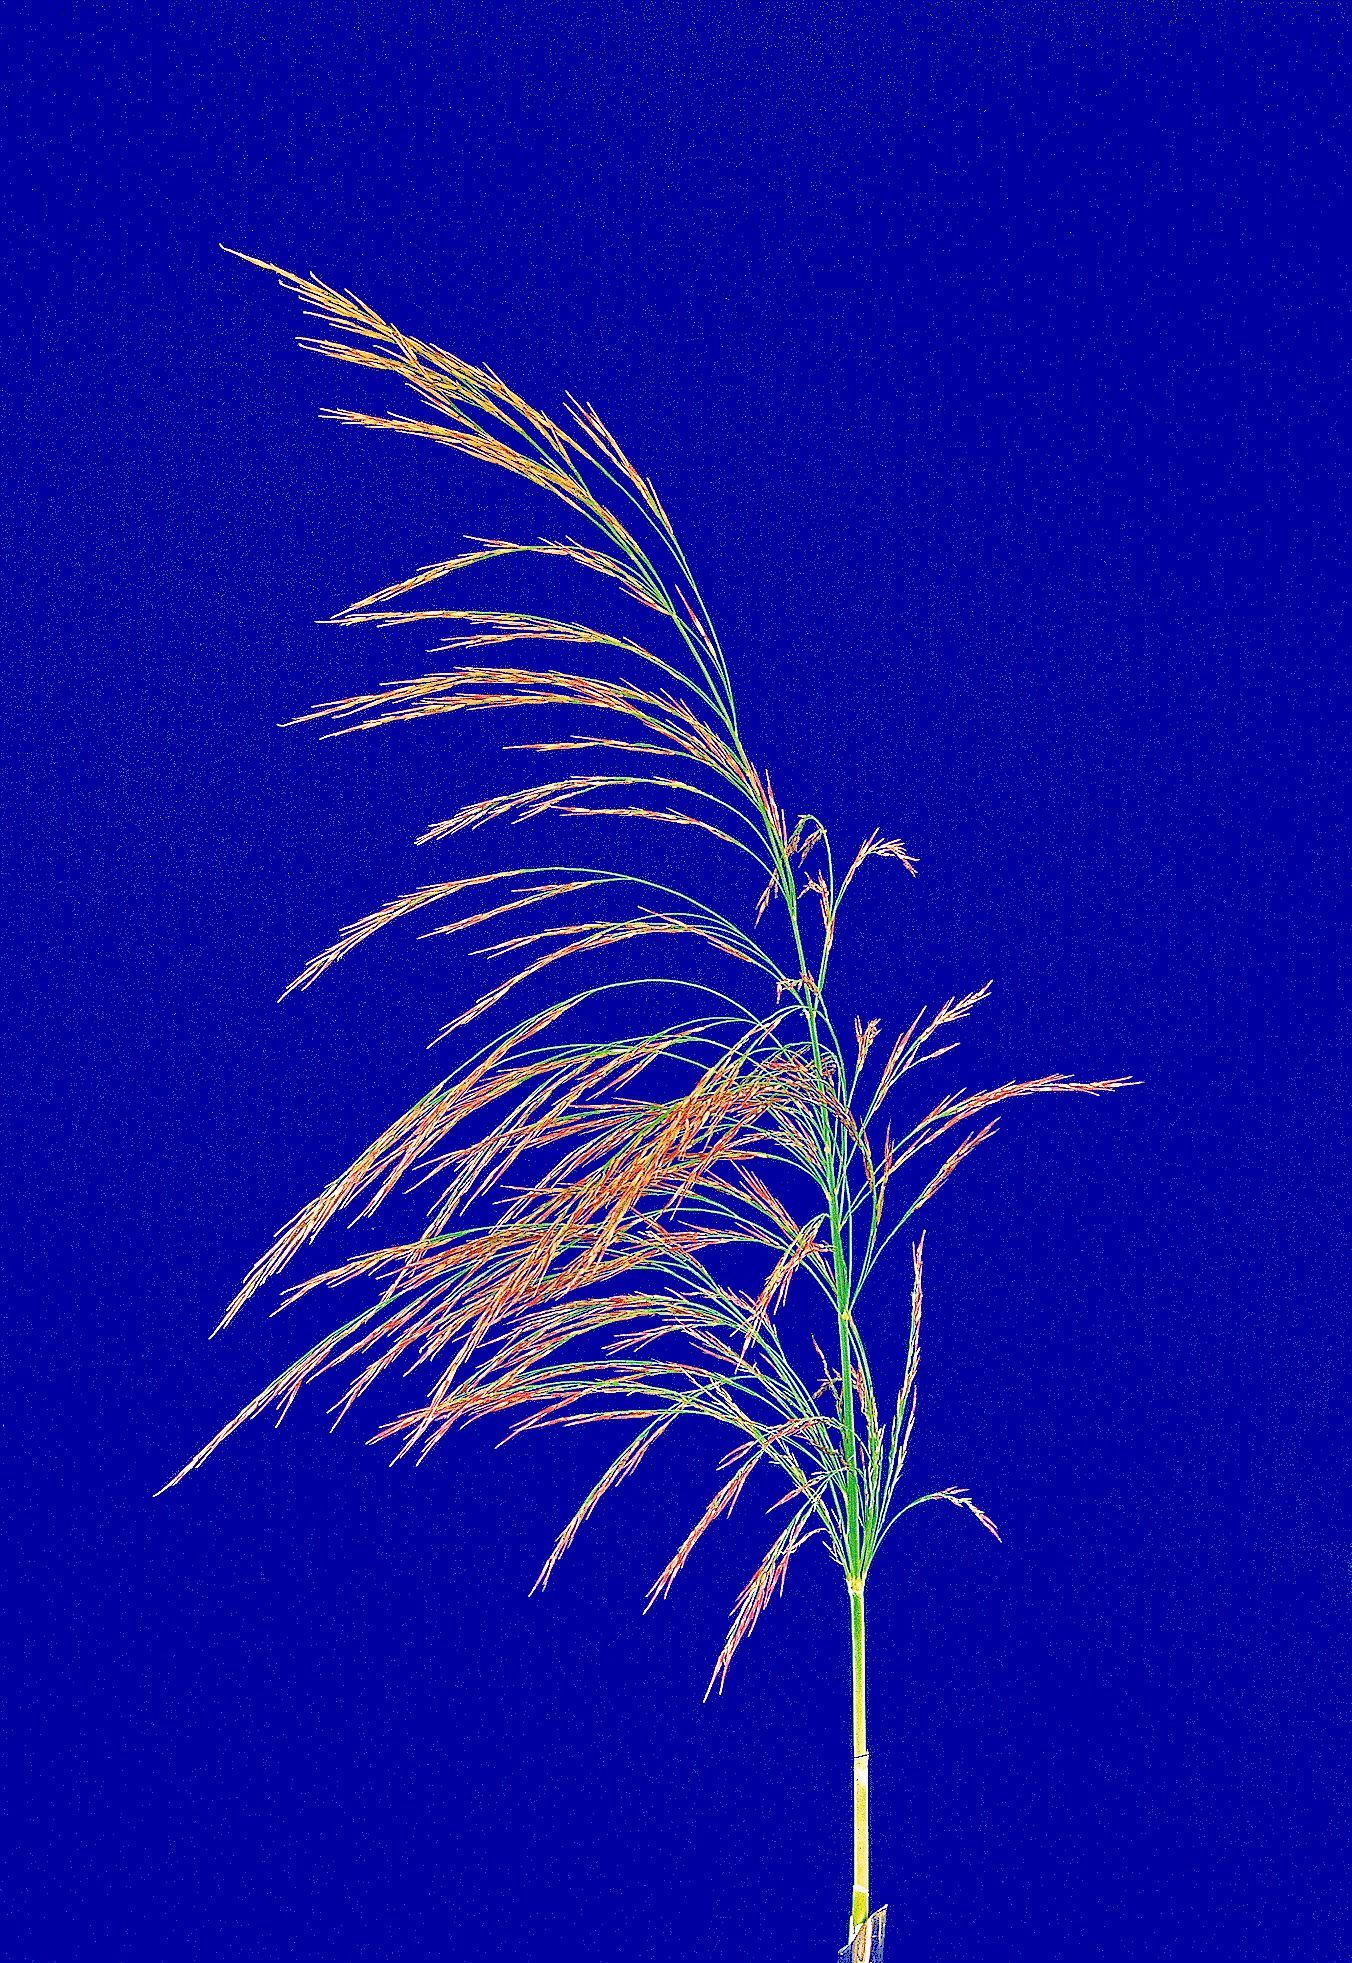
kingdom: Plantae
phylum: Tracheophyta
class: Liliopsida
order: Poales
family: Poaceae
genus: Phragmites
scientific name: Phragmites australis
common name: Common reed
